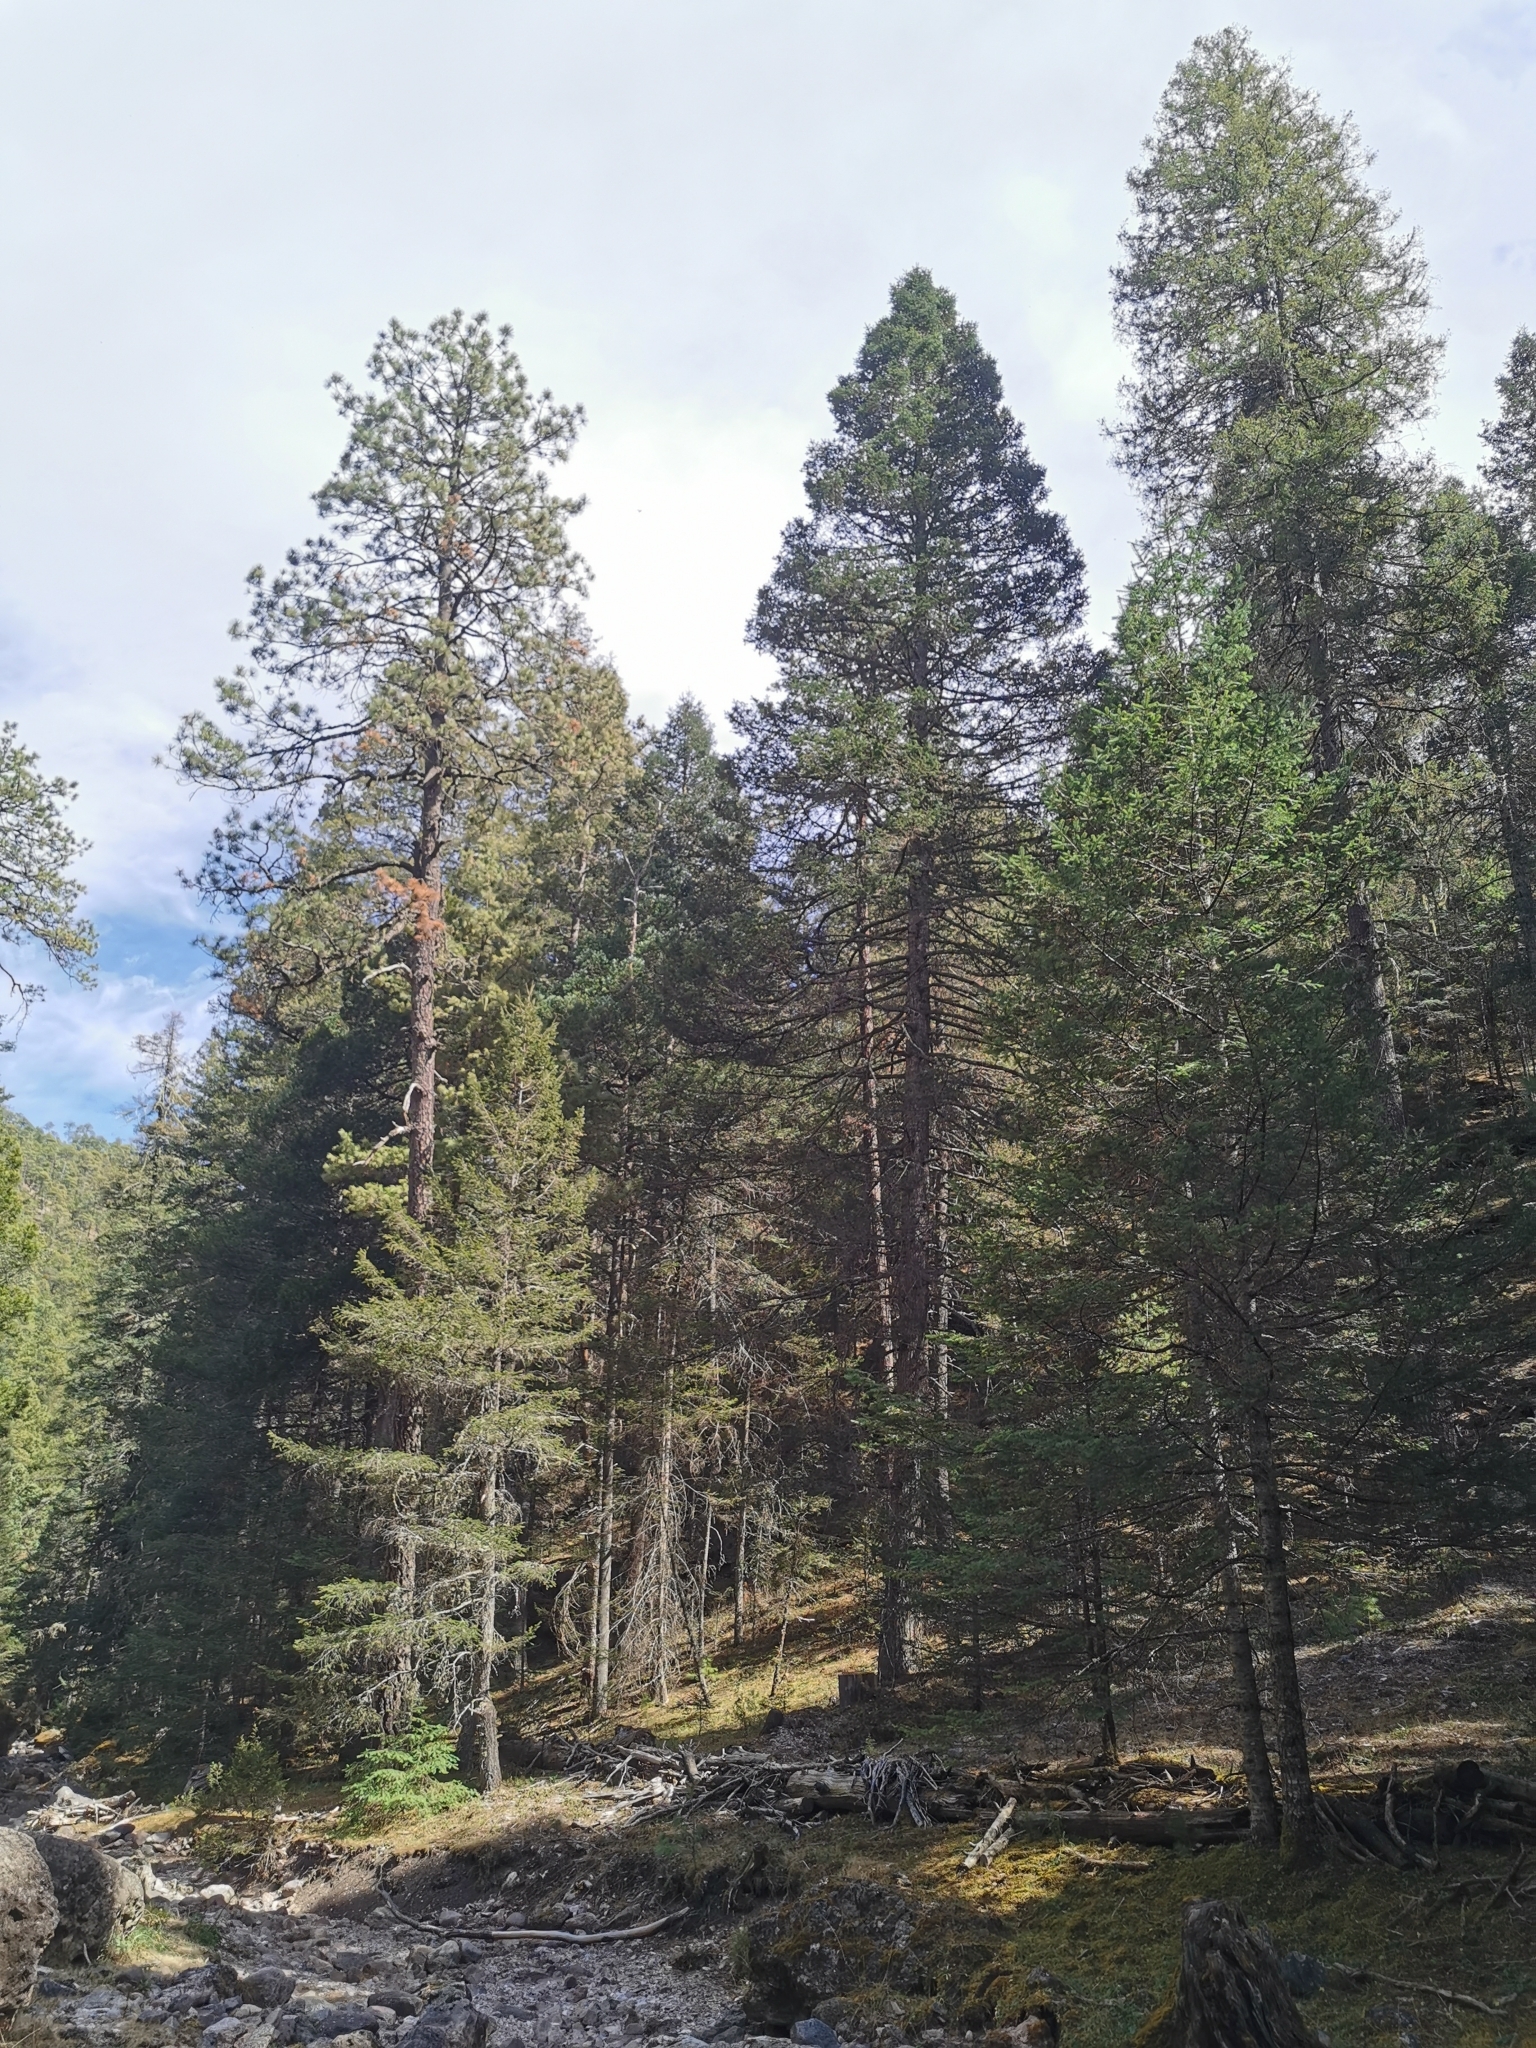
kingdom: Plantae
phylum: Tracheophyta
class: Pinopsida
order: Pinales
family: Pinaceae
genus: Pseudotsuga
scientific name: Pseudotsuga menziesii
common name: Douglas fir
